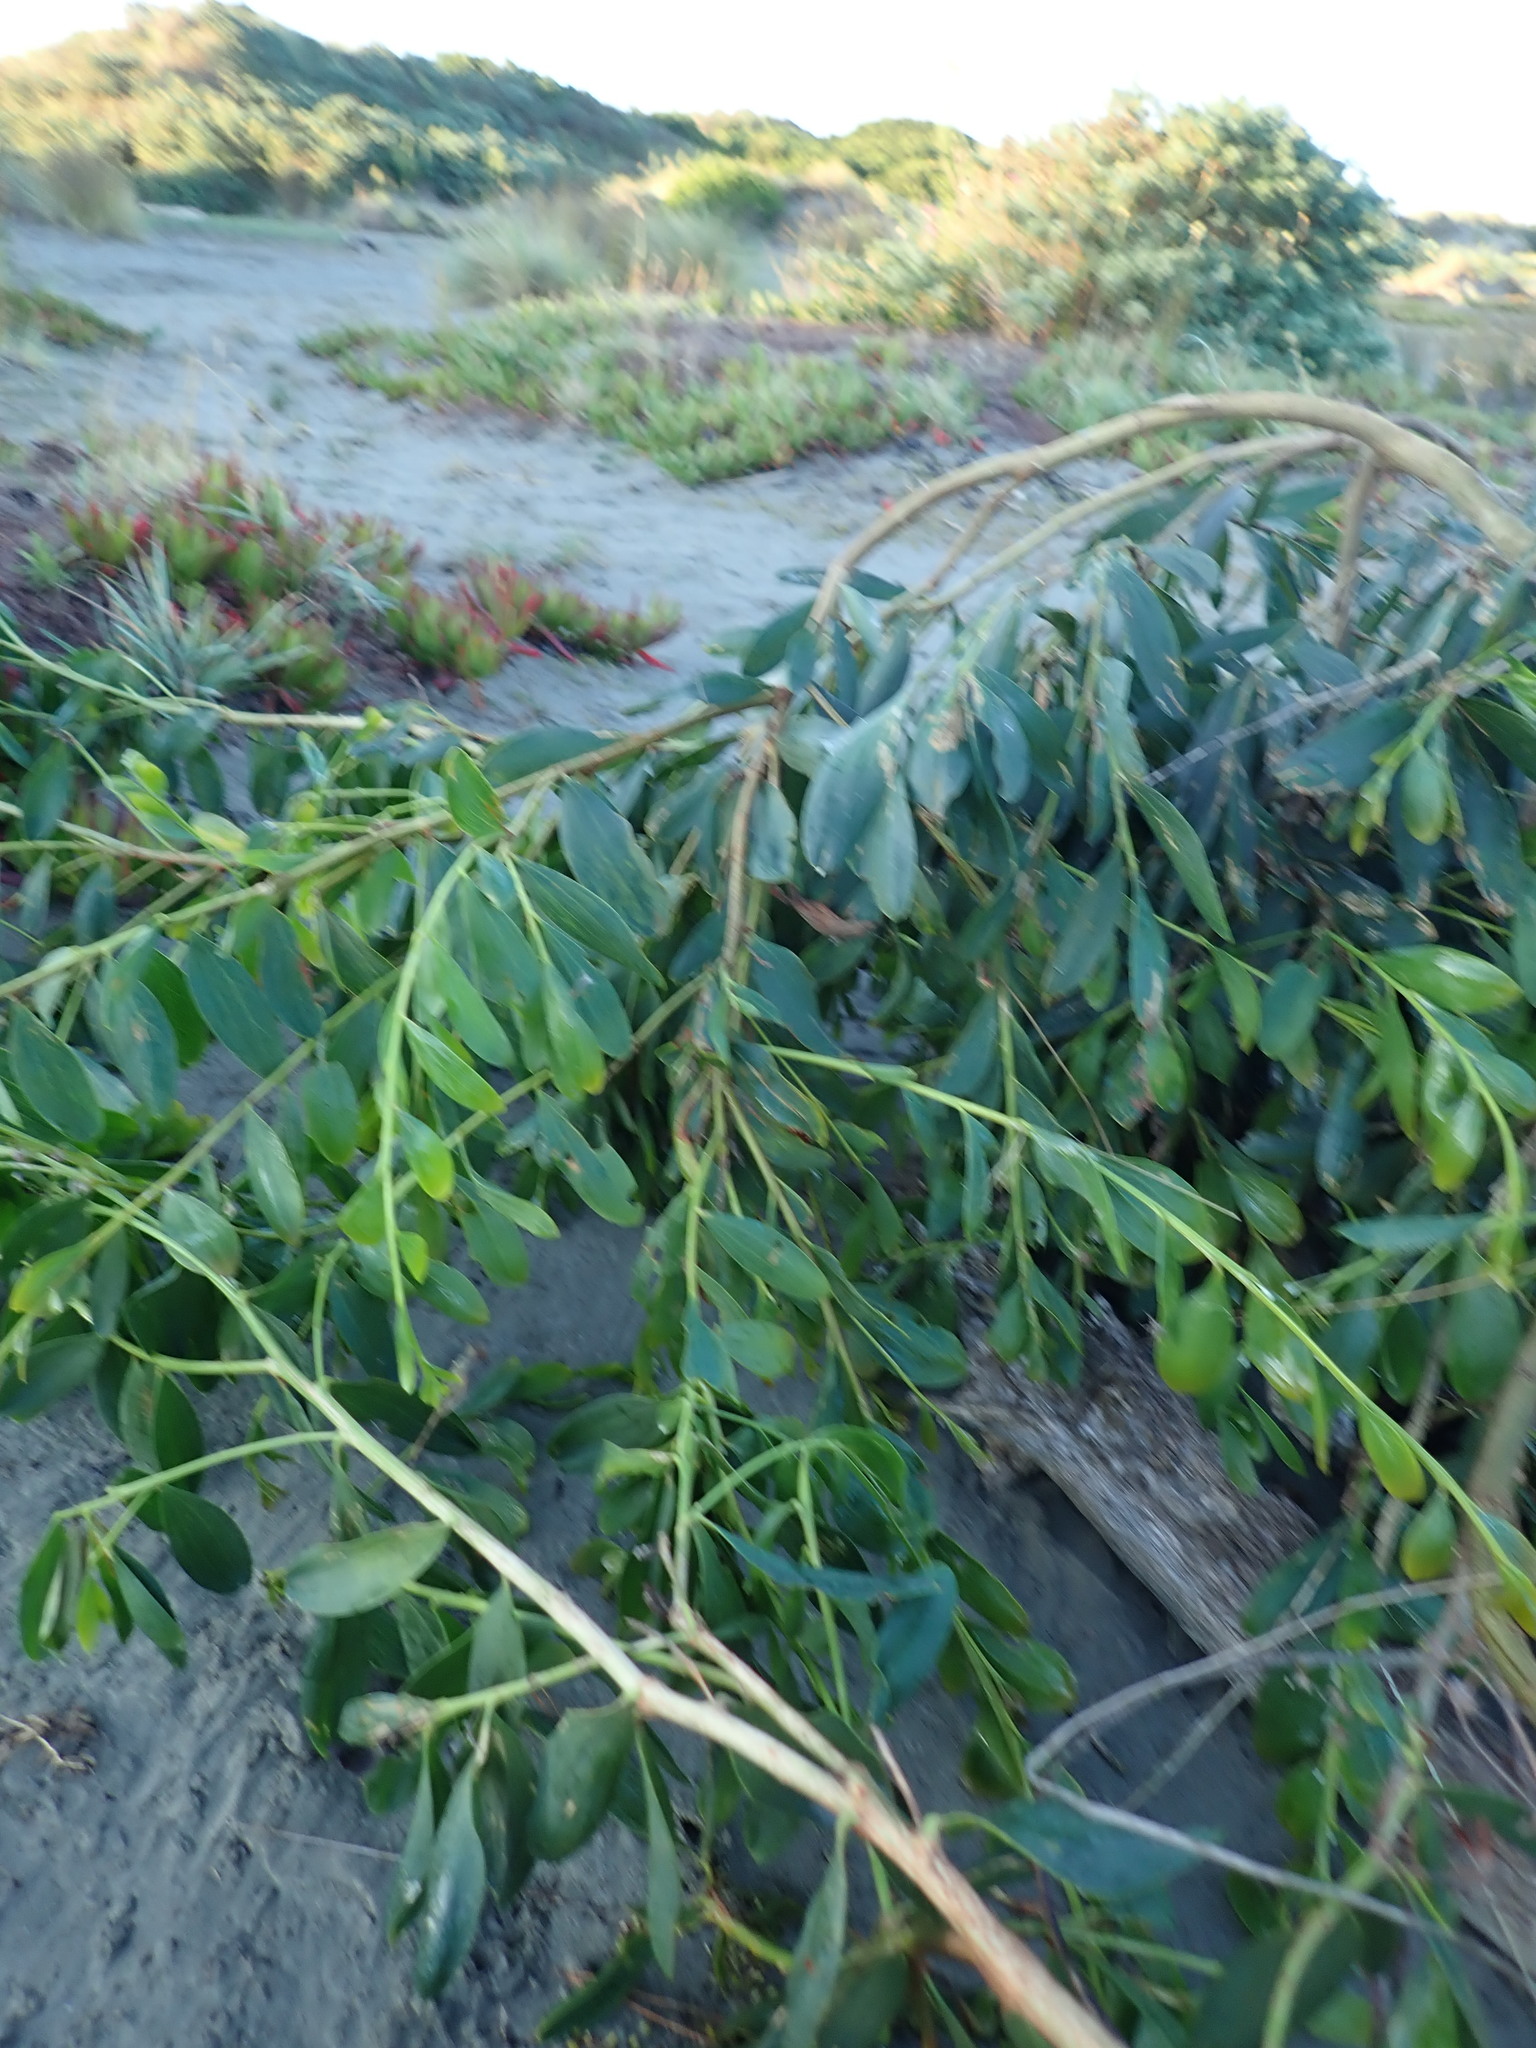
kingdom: Plantae
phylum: Tracheophyta
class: Magnoliopsida
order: Fabales
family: Fabaceae
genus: Acacia
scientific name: Acacia longifolia
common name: Sydney golden wattle
